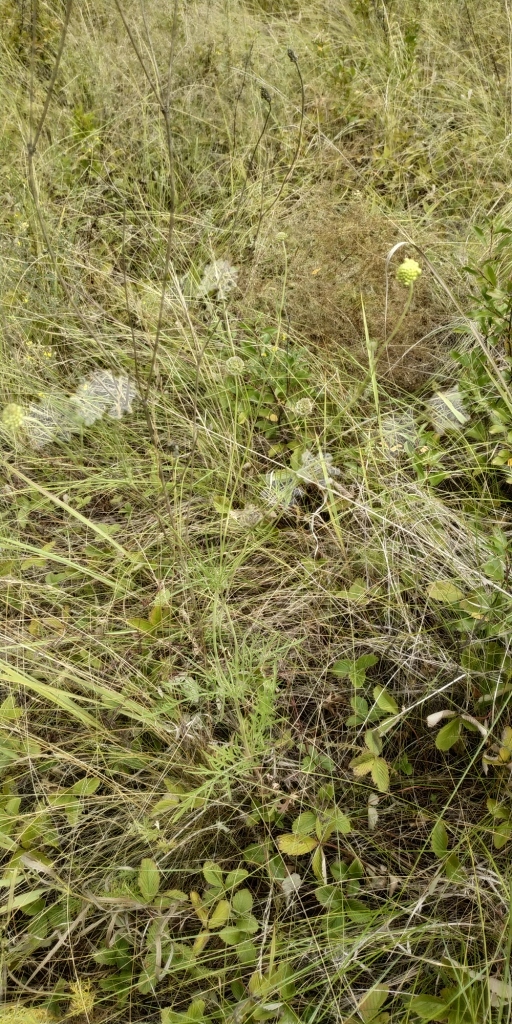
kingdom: Plantae
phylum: Tracheophyta
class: Magnoliopsida
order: Dipsacales
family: Caprifoliaceae
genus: Scabiosa
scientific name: Scabiosa ochroleuca
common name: Cream pincushions
